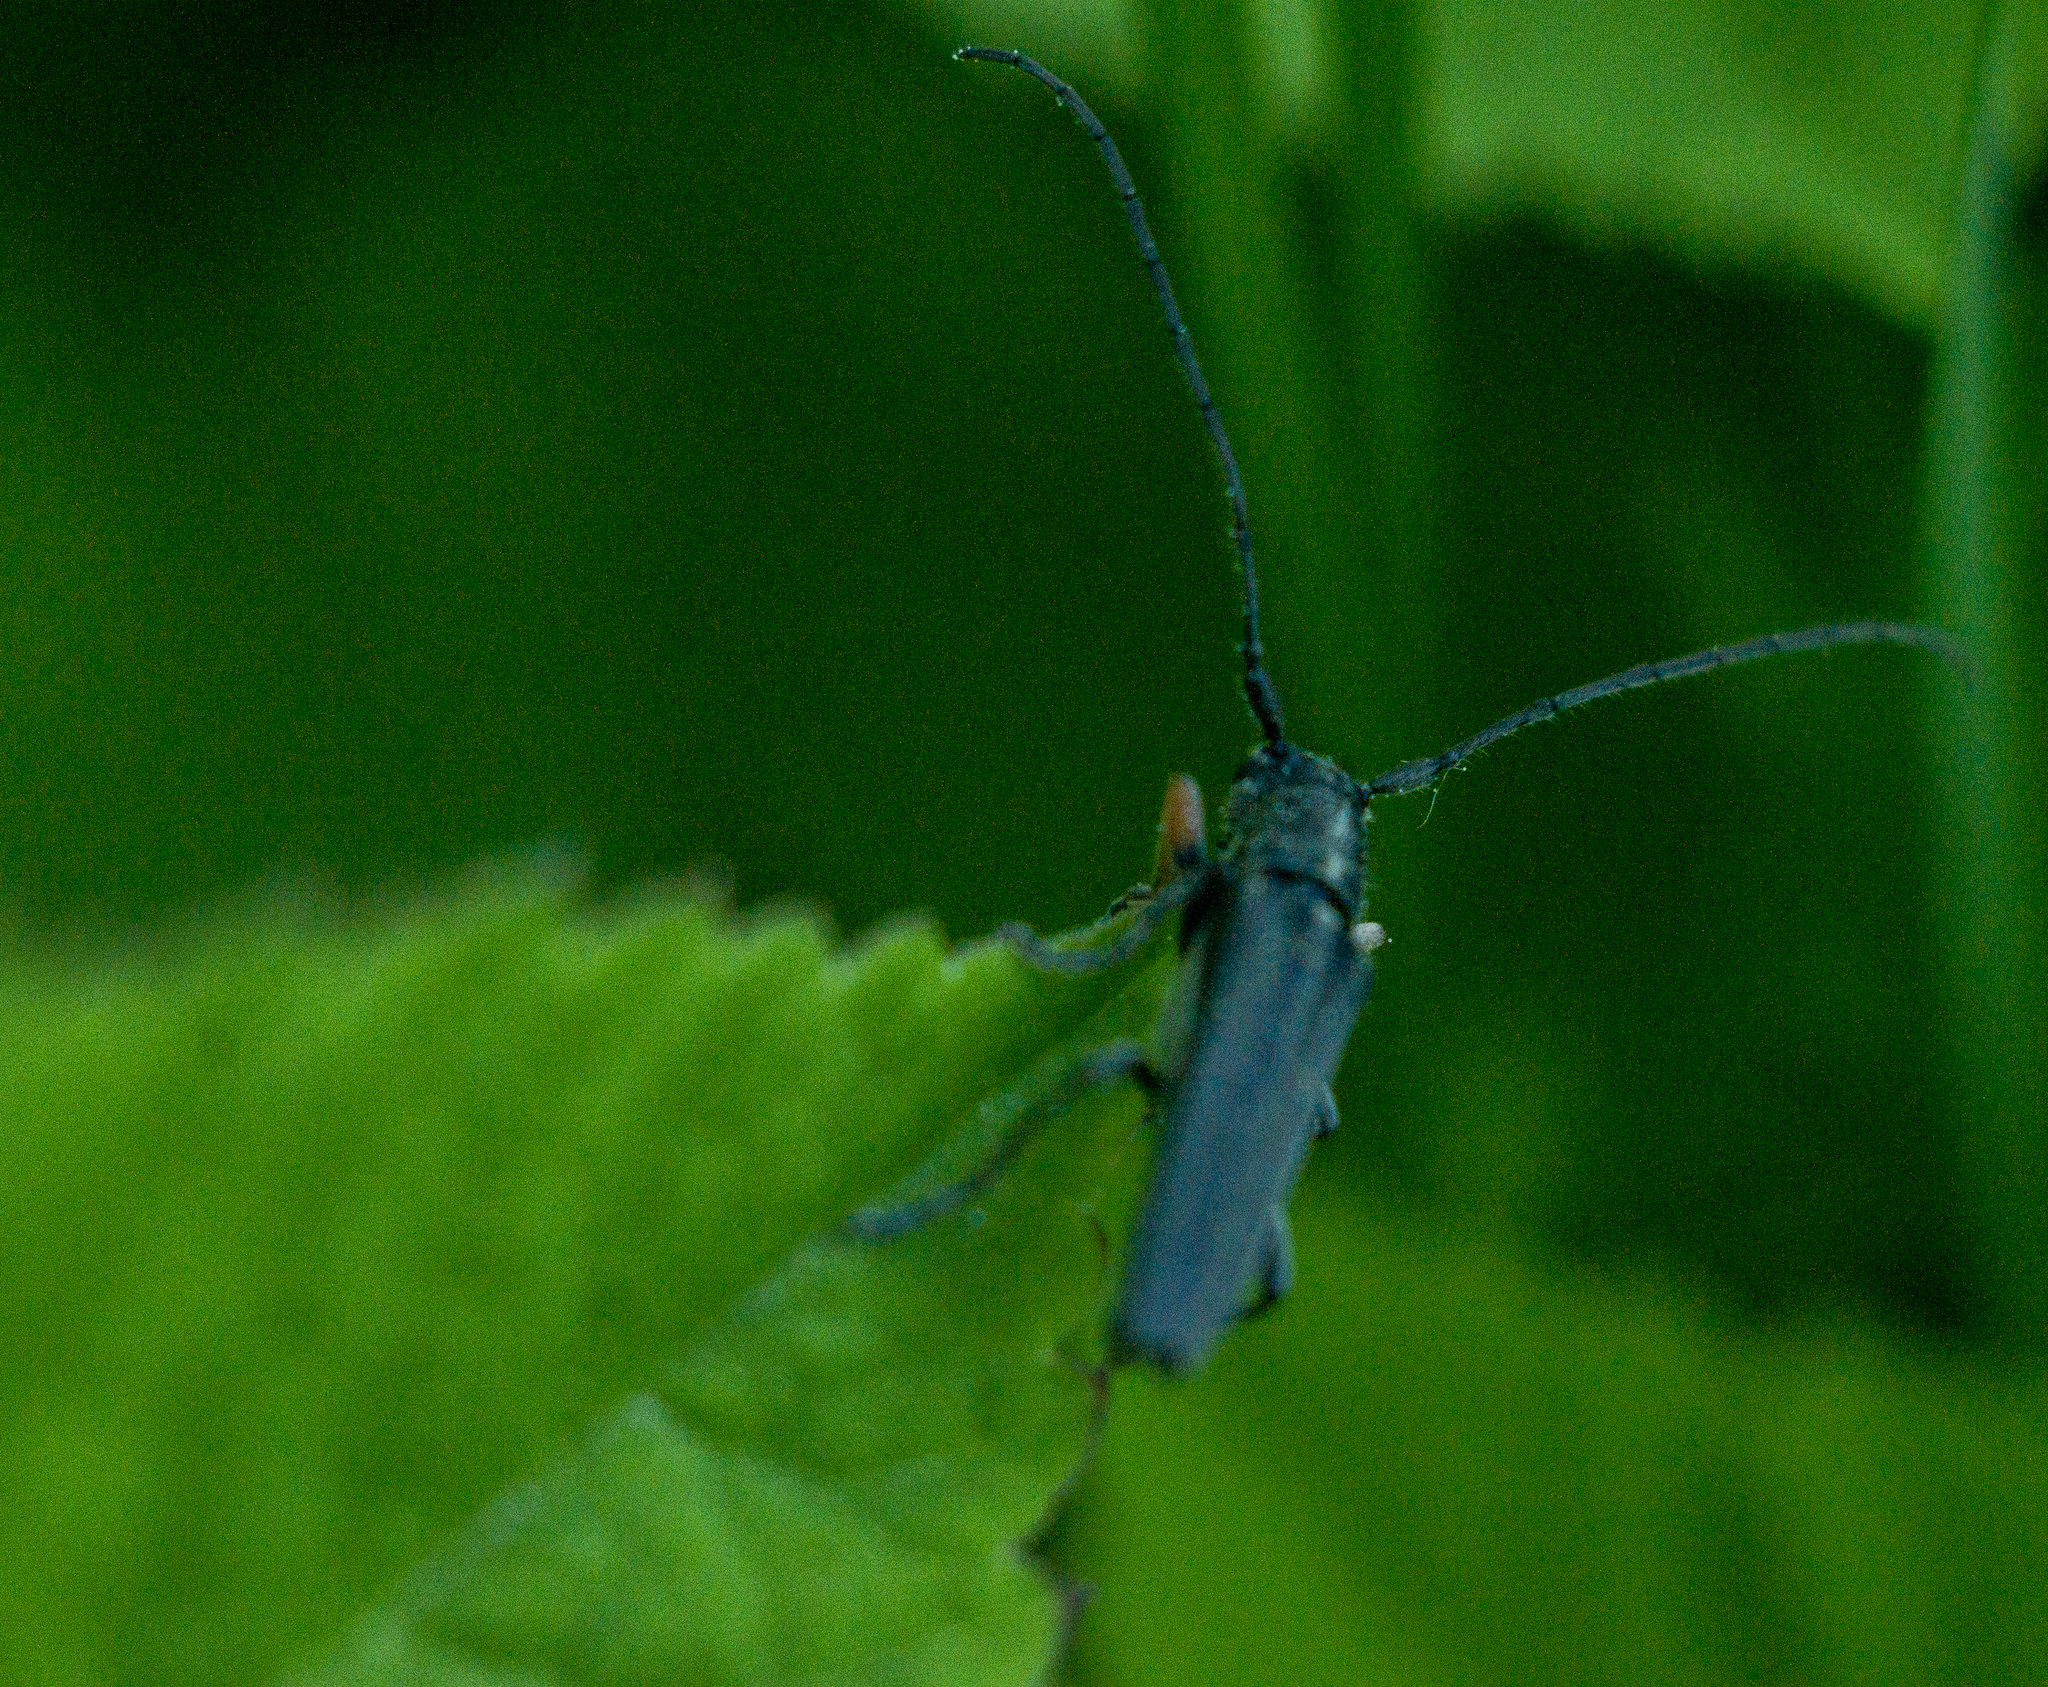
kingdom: Animalia
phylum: Arthropoda
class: Insecta
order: Coleoptera
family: Cerambycidae
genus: Phytoecia
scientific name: Phytoecia cylindrica
